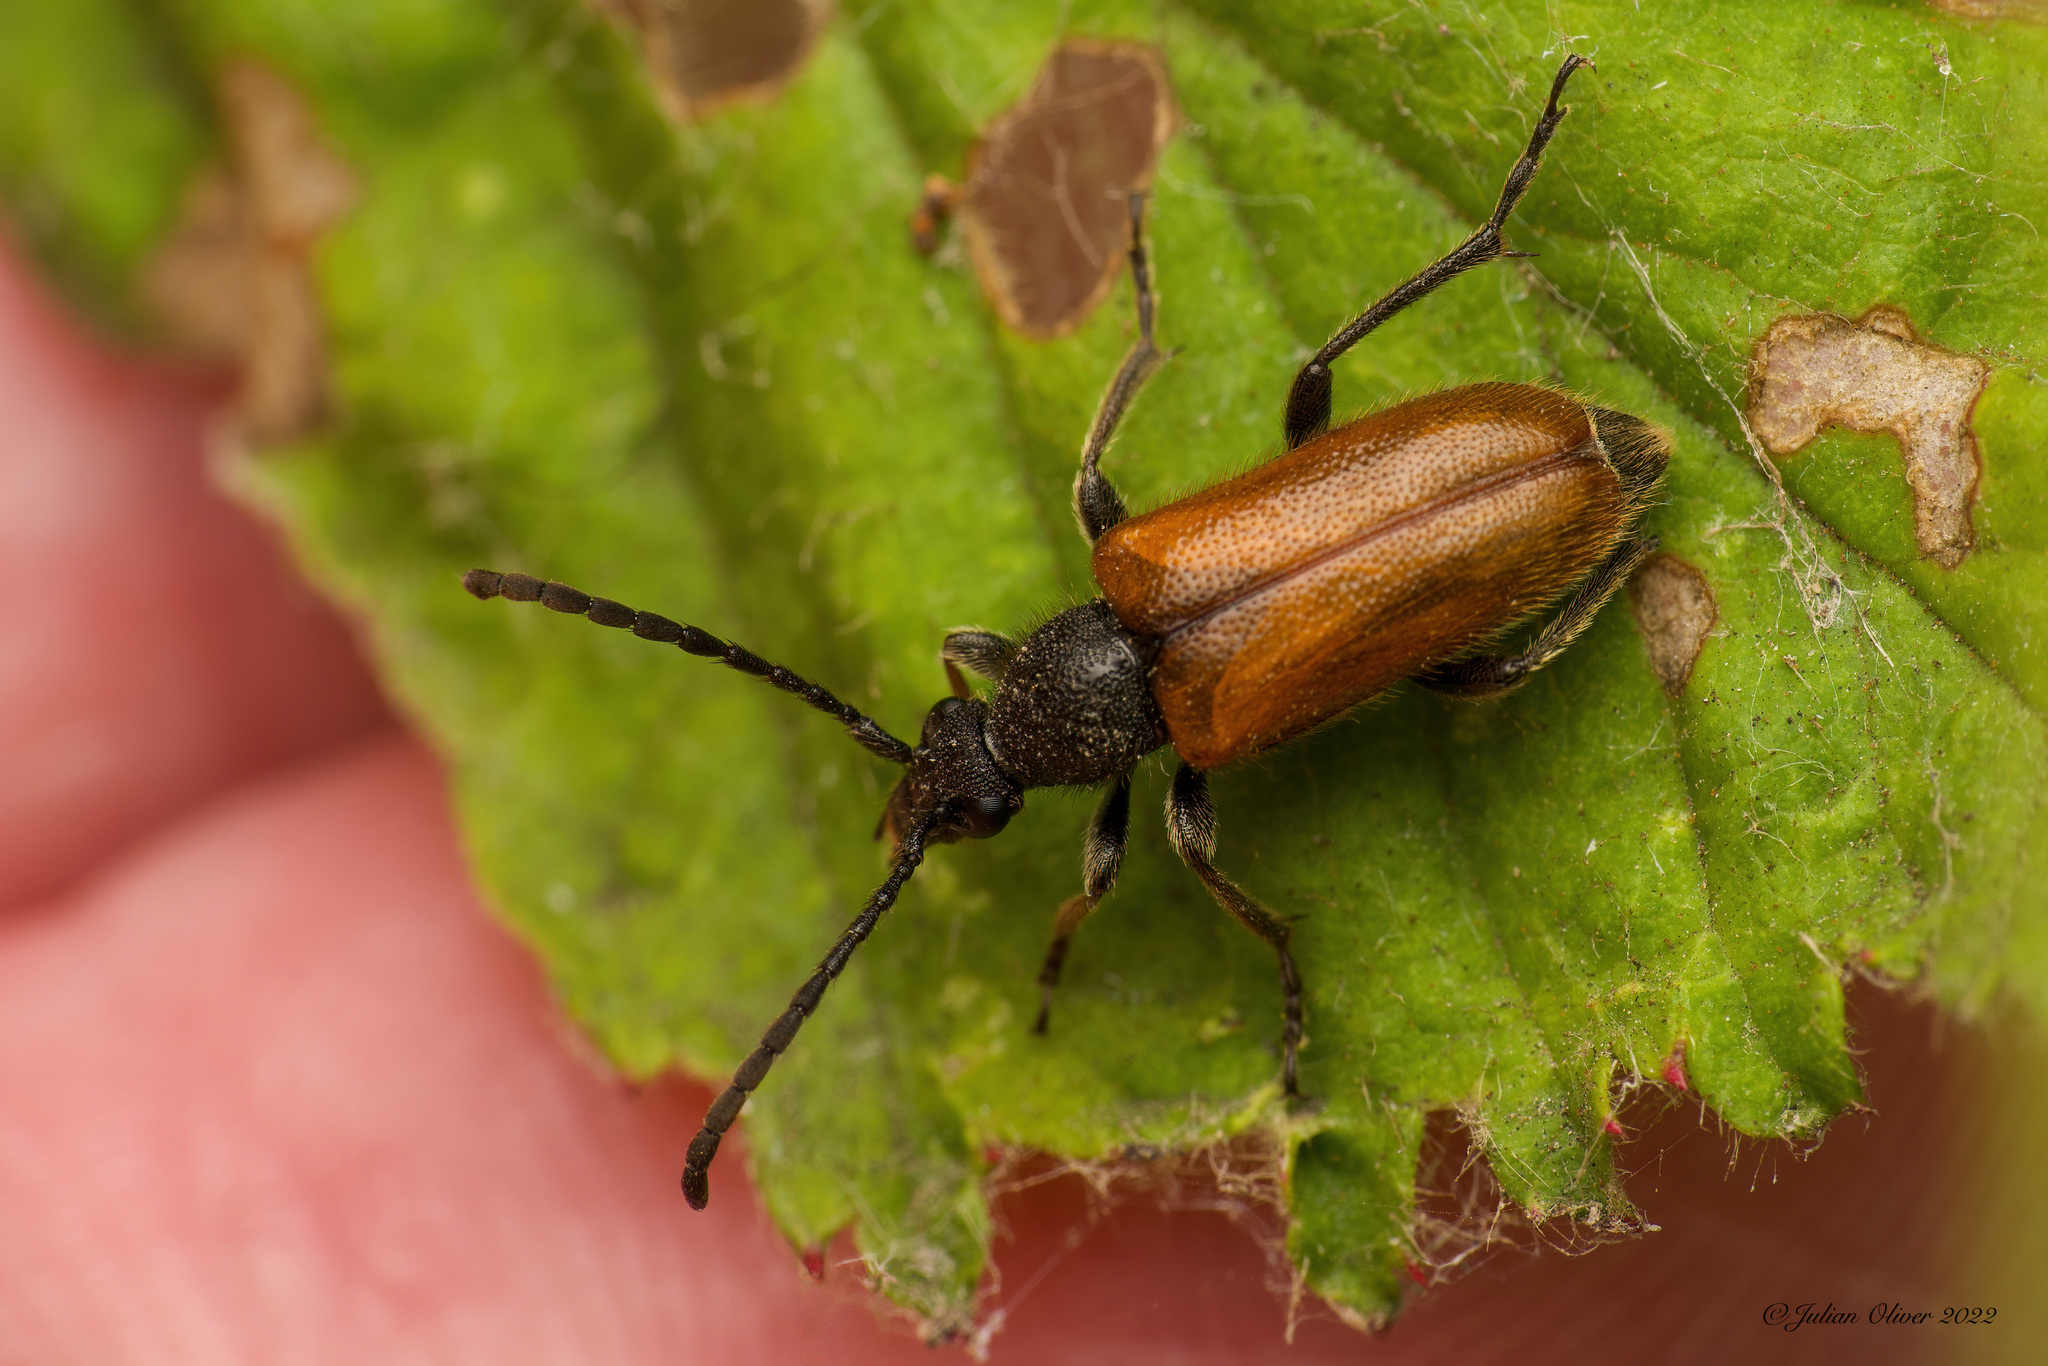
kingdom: Animalia
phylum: Arthropoda
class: Insecta
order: Coleoptera
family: Cerambycidae
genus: Pseudovadonia
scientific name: Pseudovadonia livida
